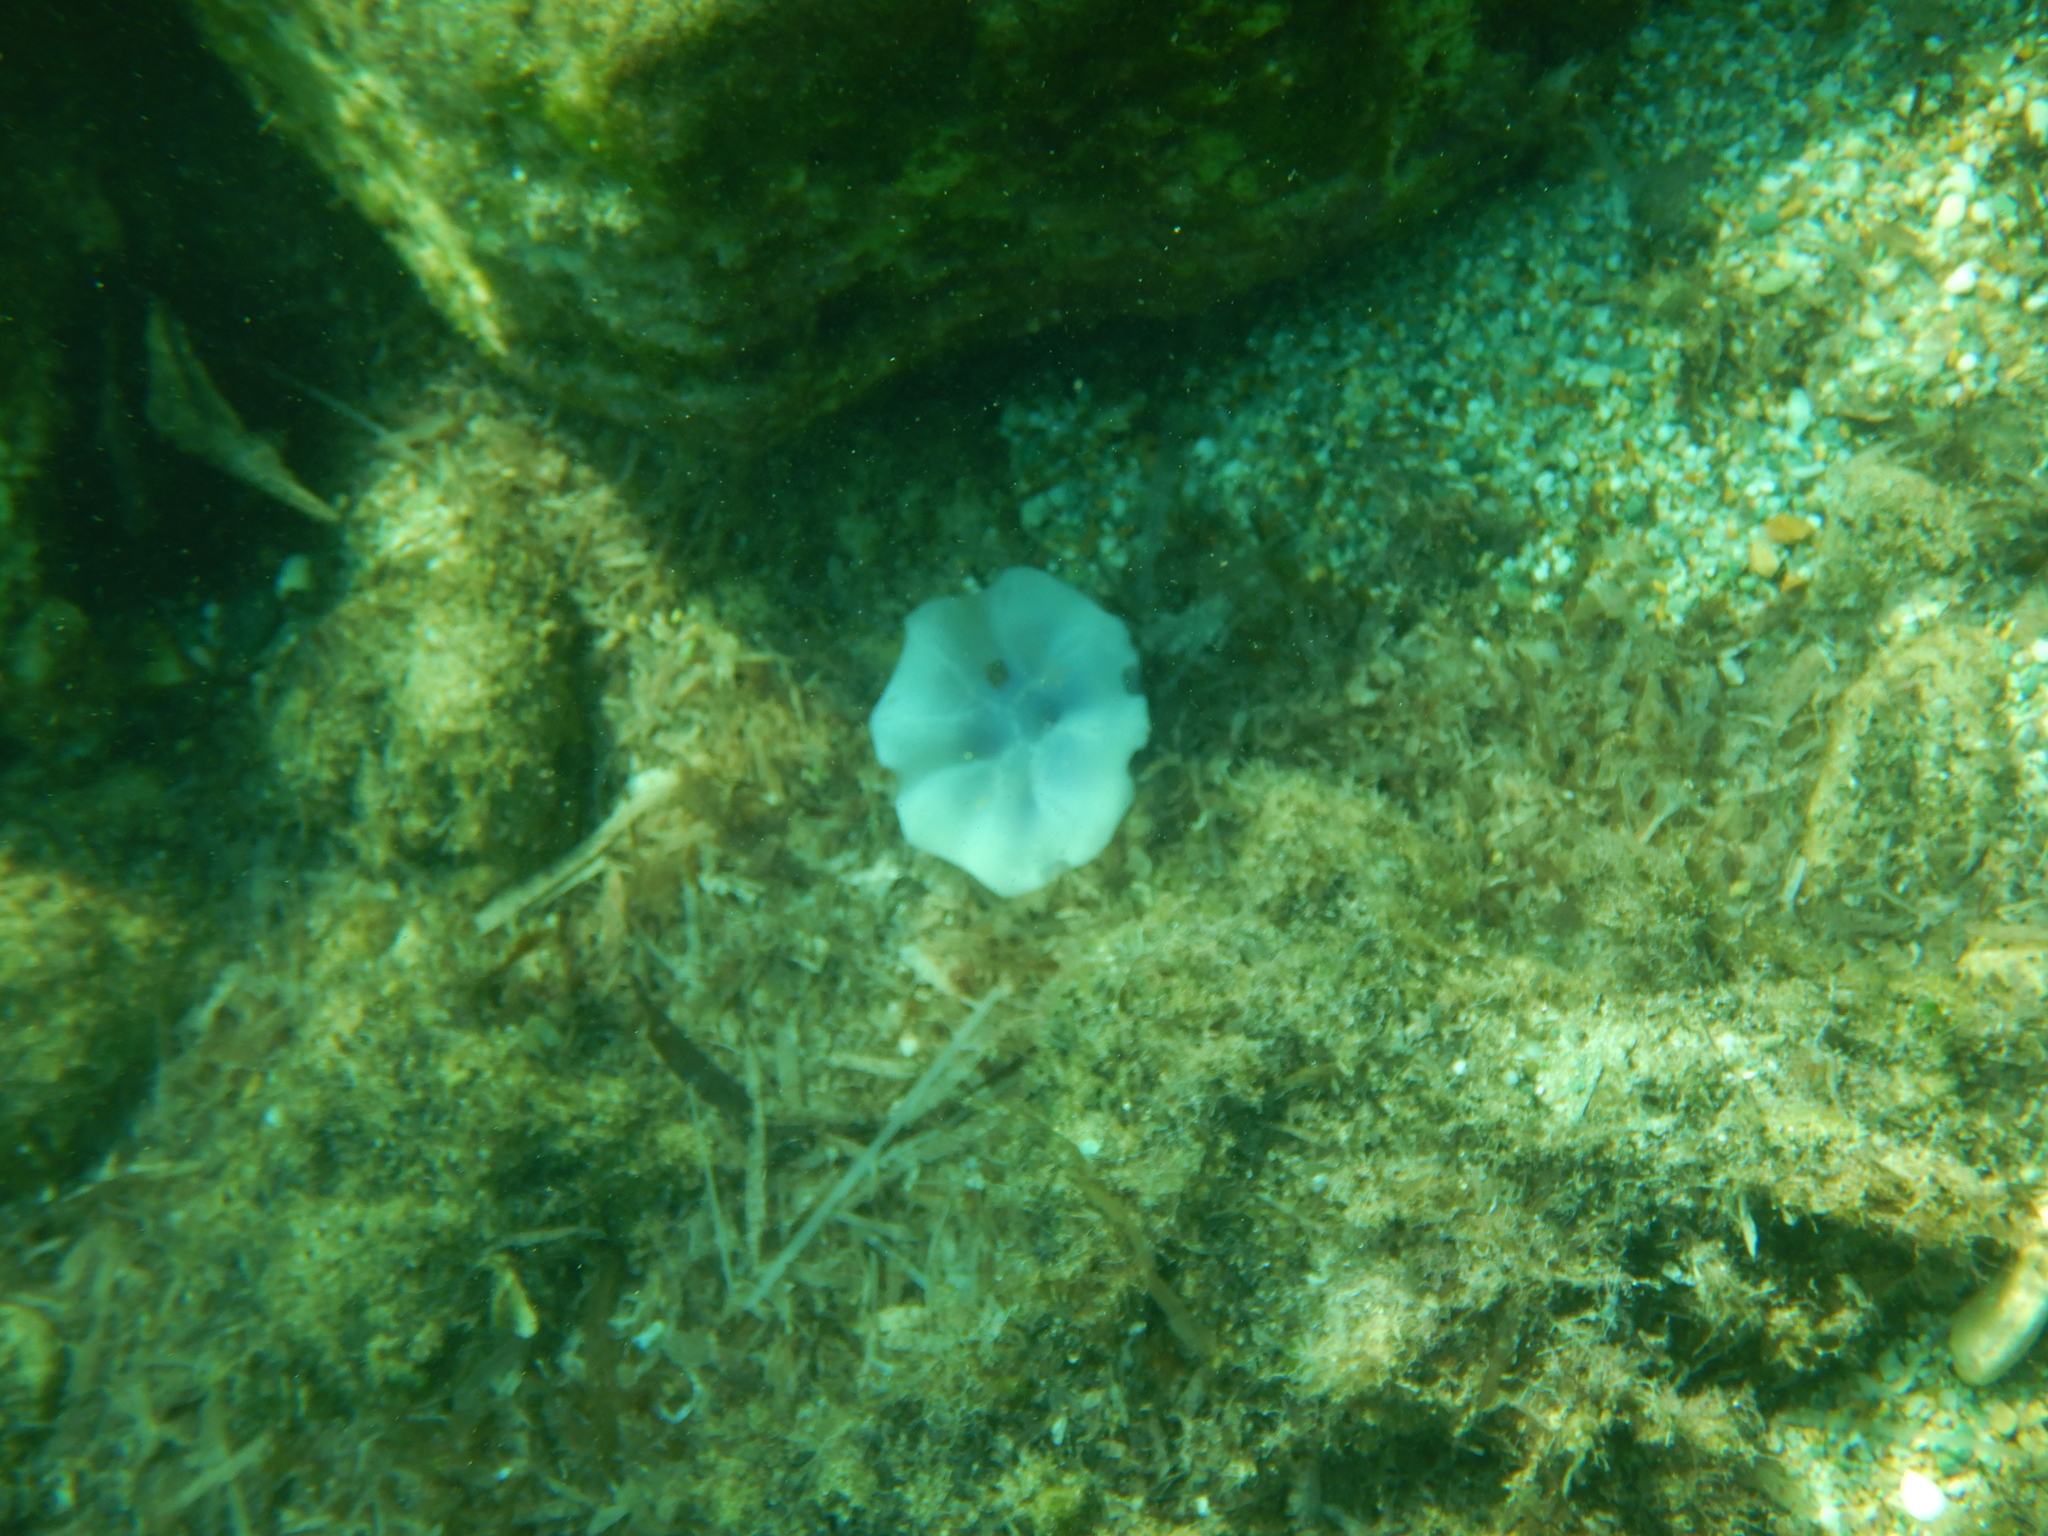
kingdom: Animalia
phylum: Cnidaria
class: Scyphozoa
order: Rhizostomeae
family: Cepheidae
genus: Cotylorhiza
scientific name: Cotylorhiza tuberculata
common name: Mediterranean jelly
